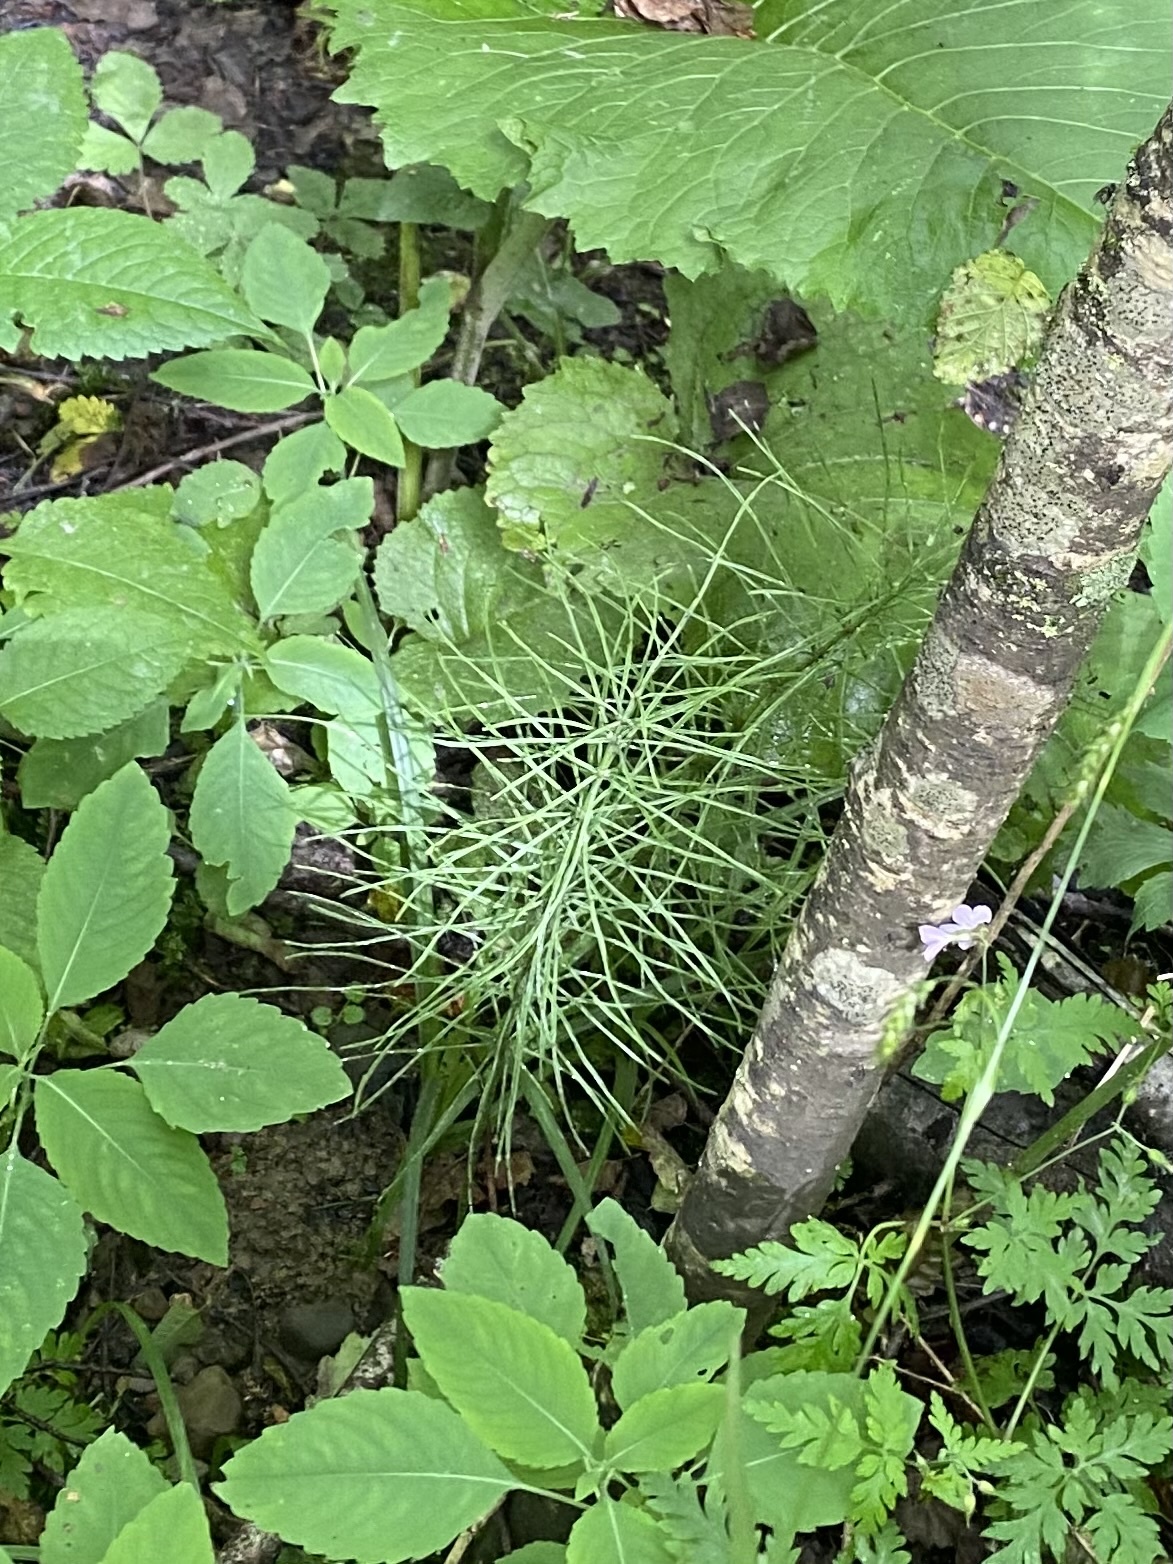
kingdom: Plantae
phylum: Tracheophyta
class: Polypodiopsida
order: Equisetales
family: Equisetaceae
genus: Equisetum
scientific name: Equisetum arvense
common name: Field horsetail
